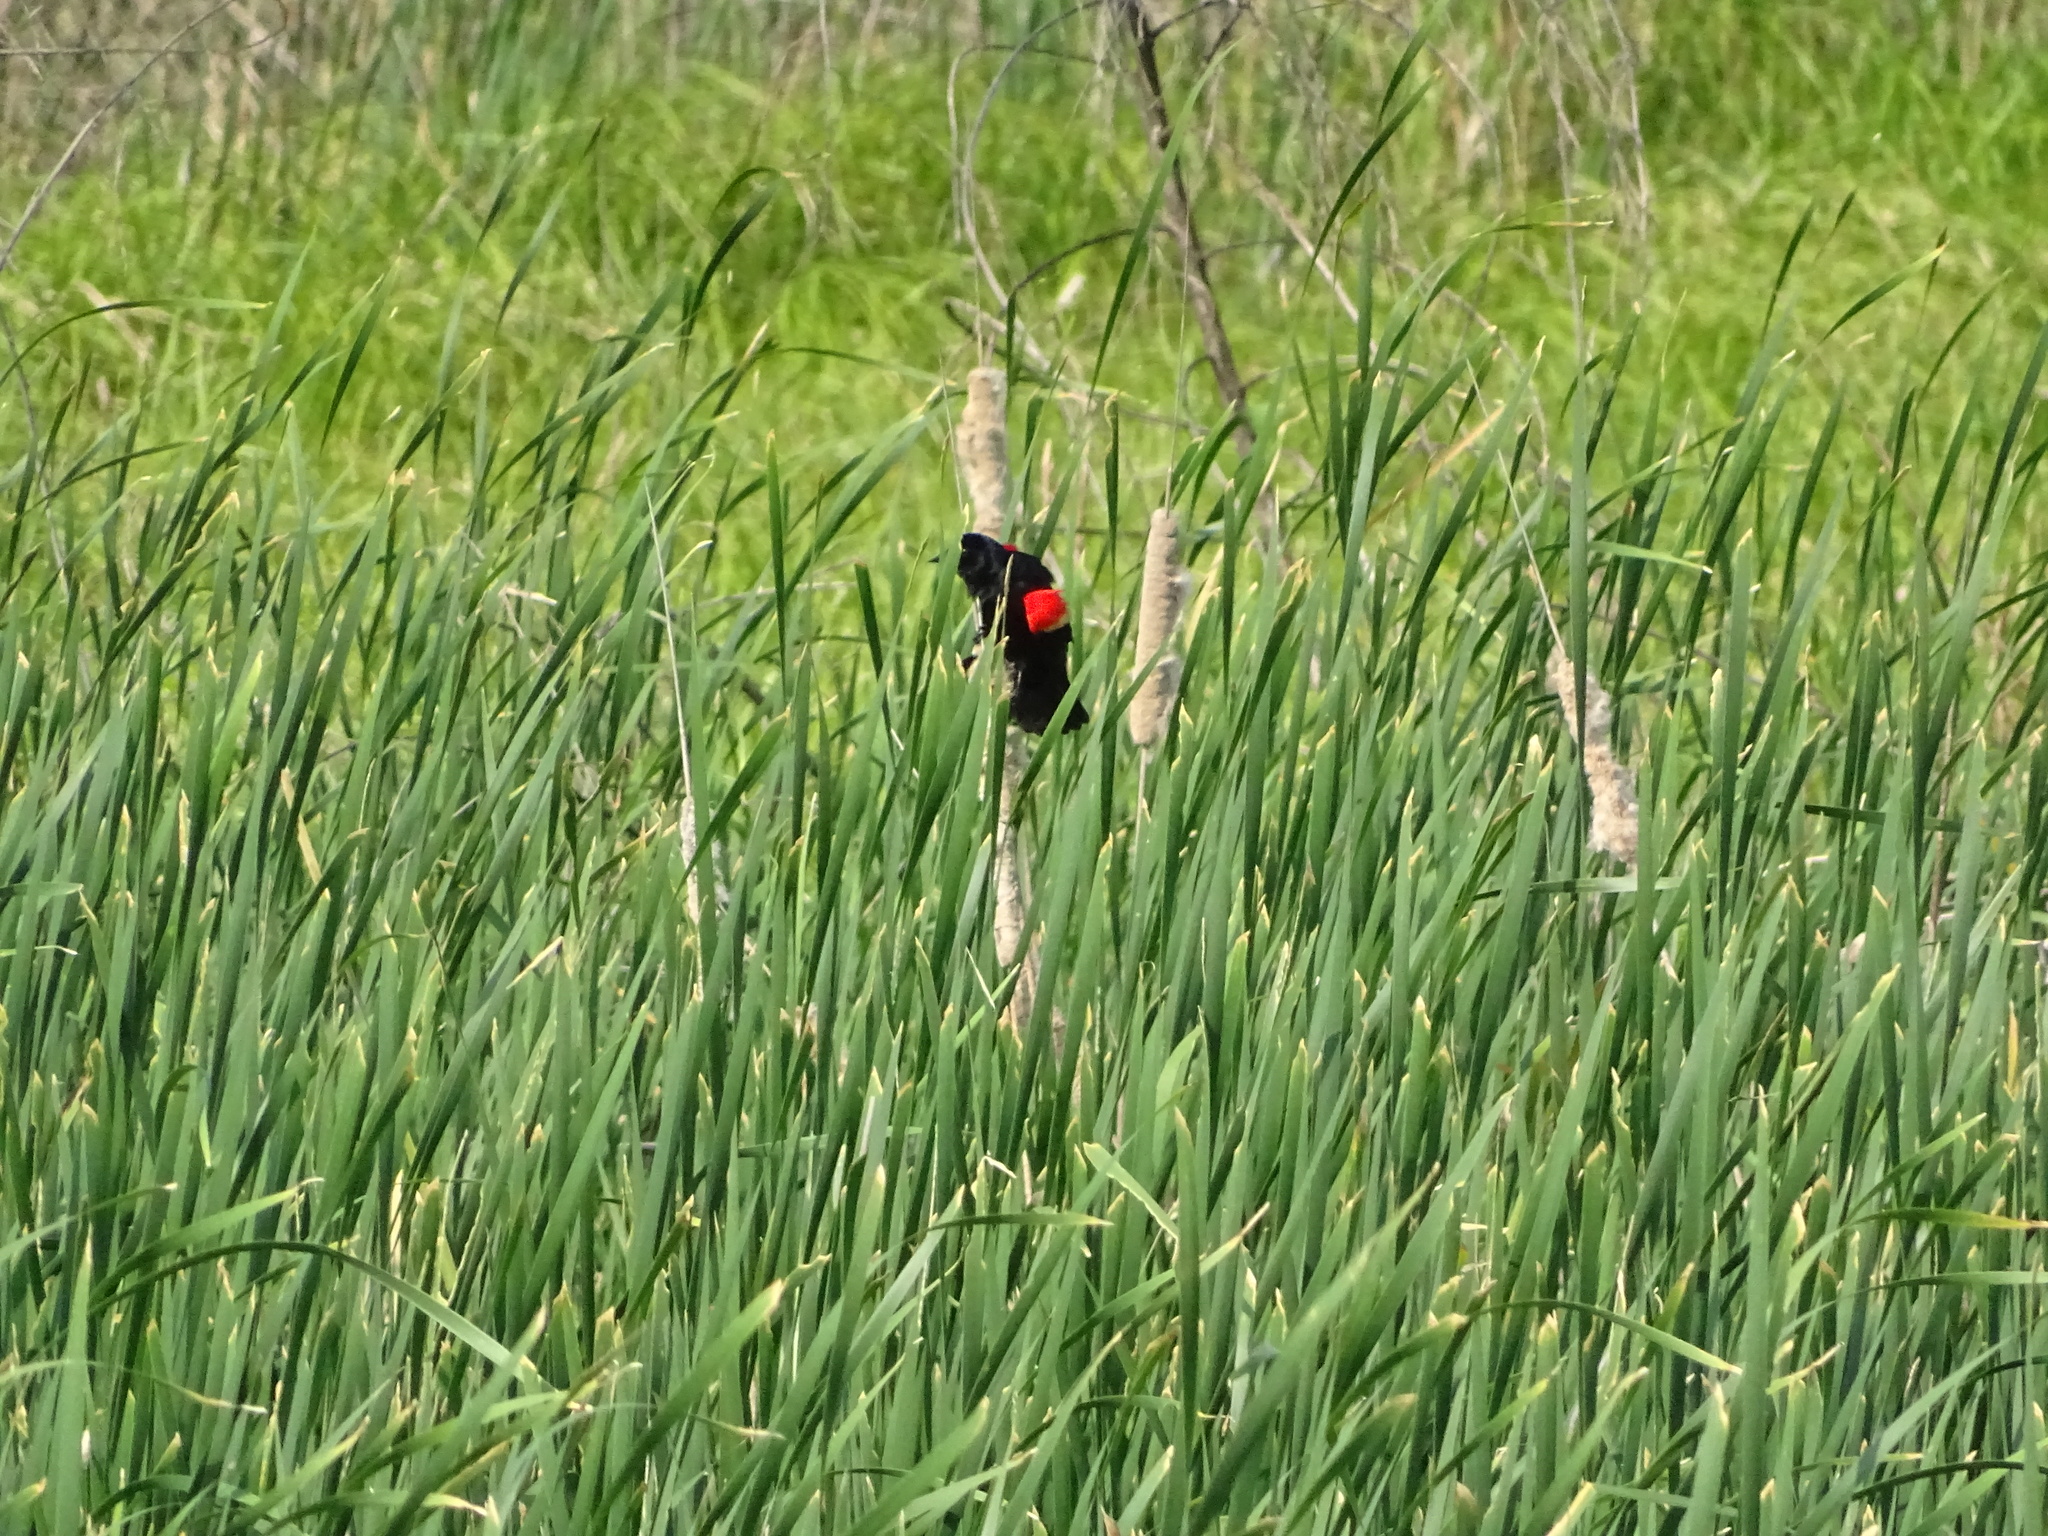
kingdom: Animalia
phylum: Chordata
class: Aves
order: Passeriformes
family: Icteridae
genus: Agelaius
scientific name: Agelaius phoeniceus
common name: Red-winged blackbird
